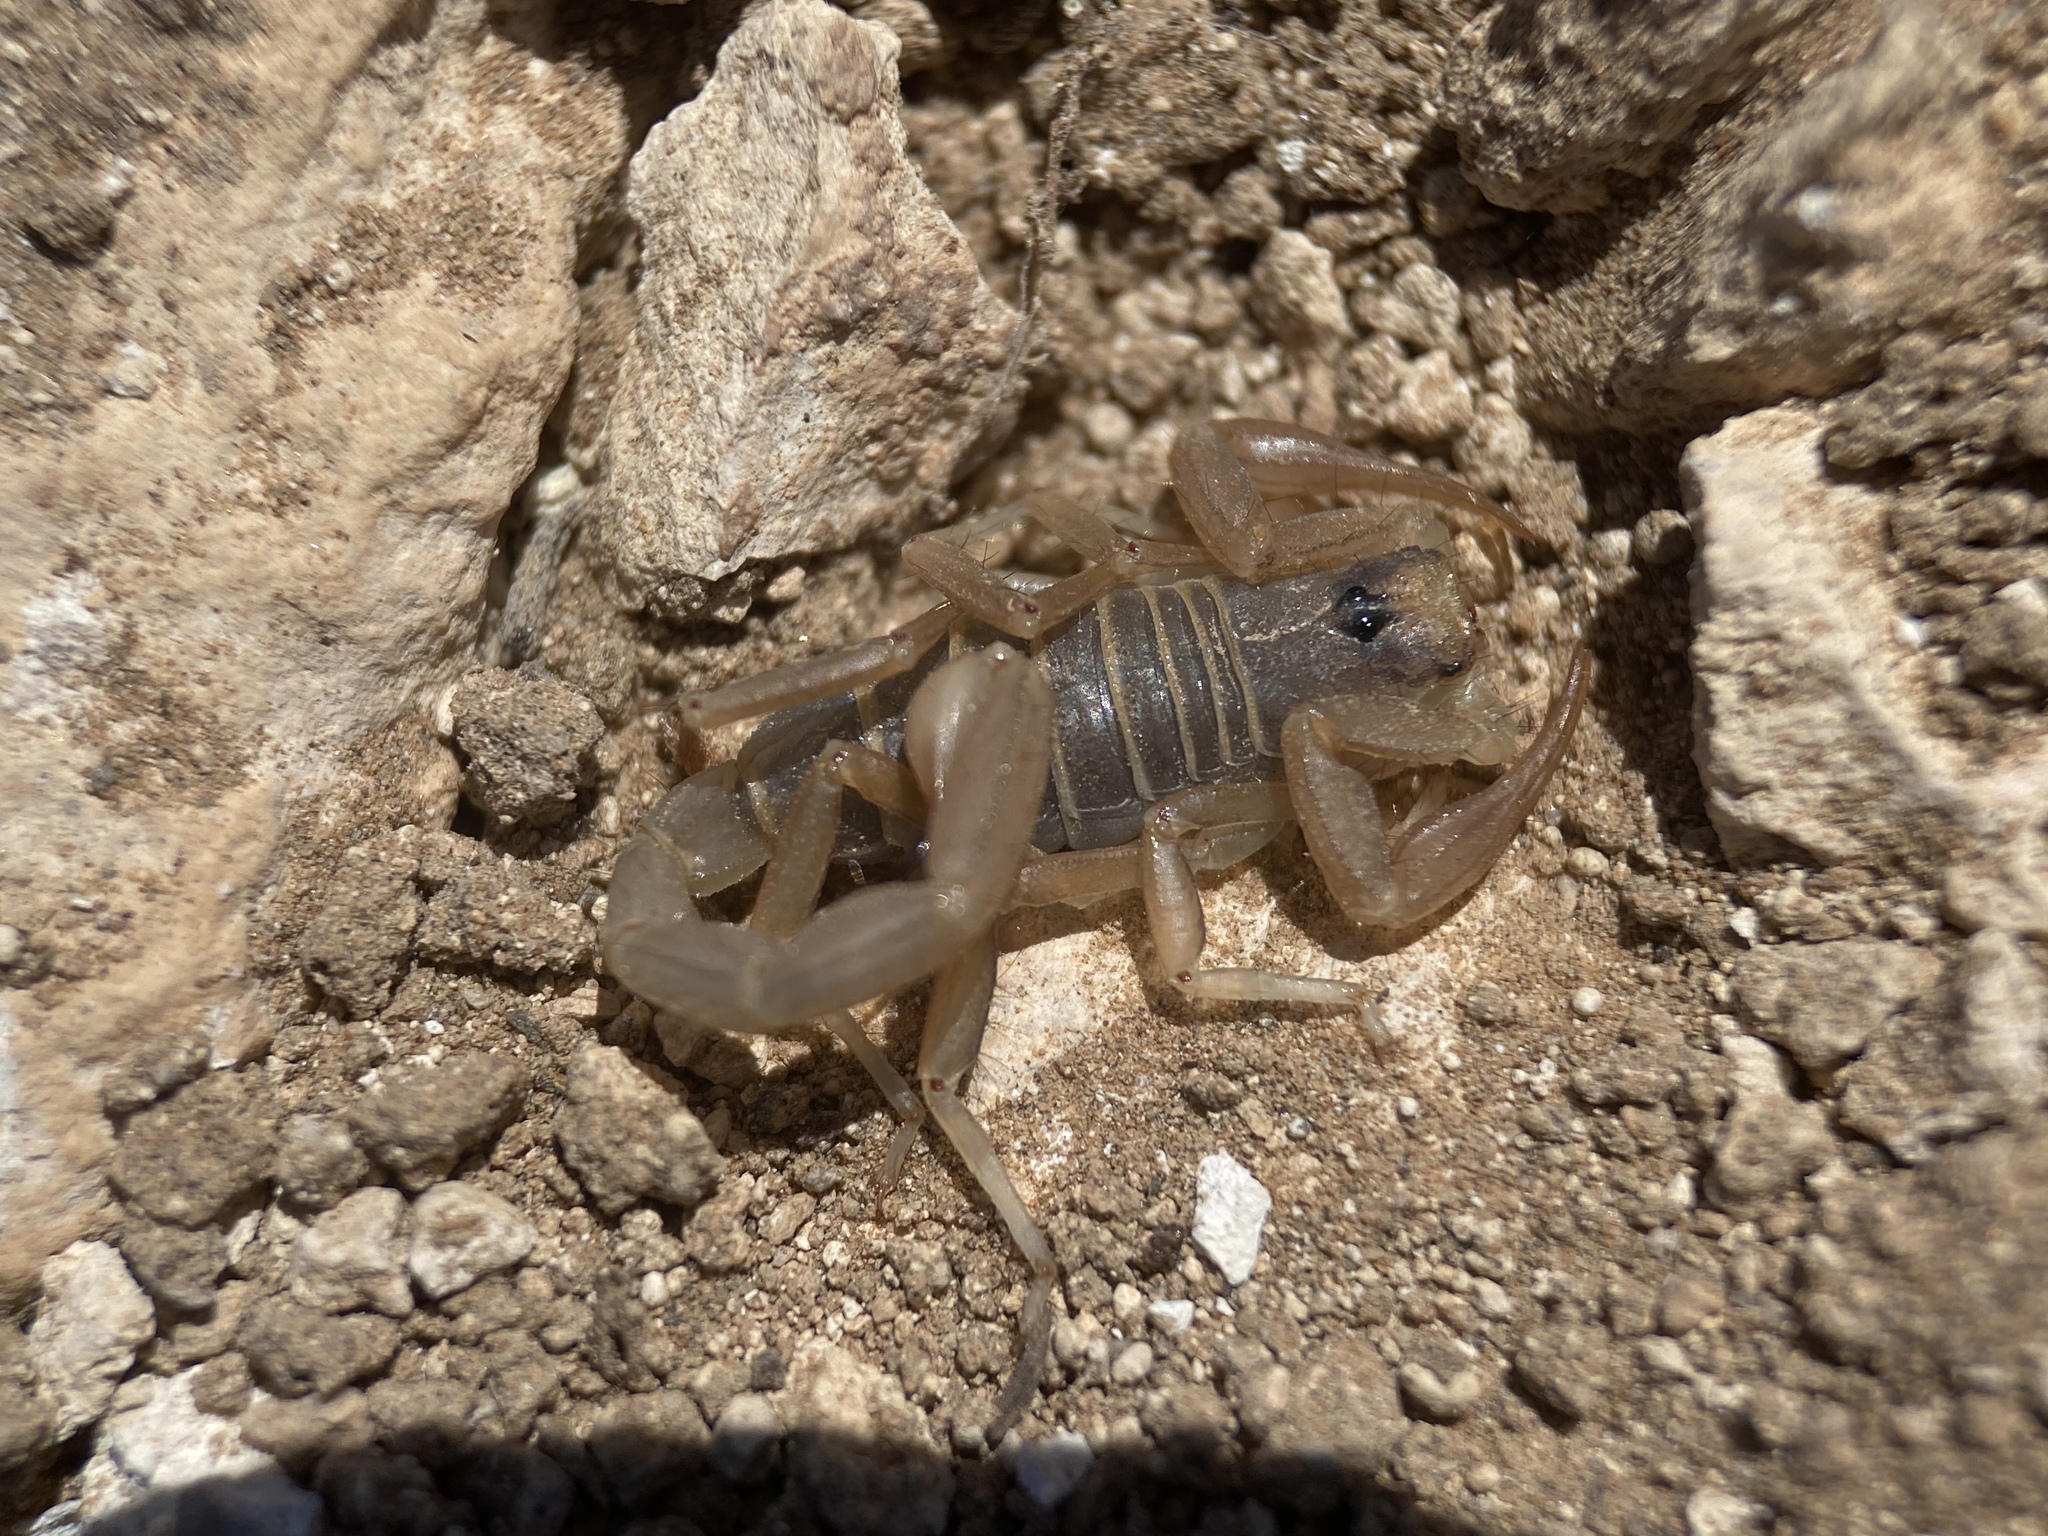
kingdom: Animalia
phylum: Arthropoda
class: Arachnida
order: Scorpiones
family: Vaejovidae
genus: Paruroctonus
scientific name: Paruroctonus becki
